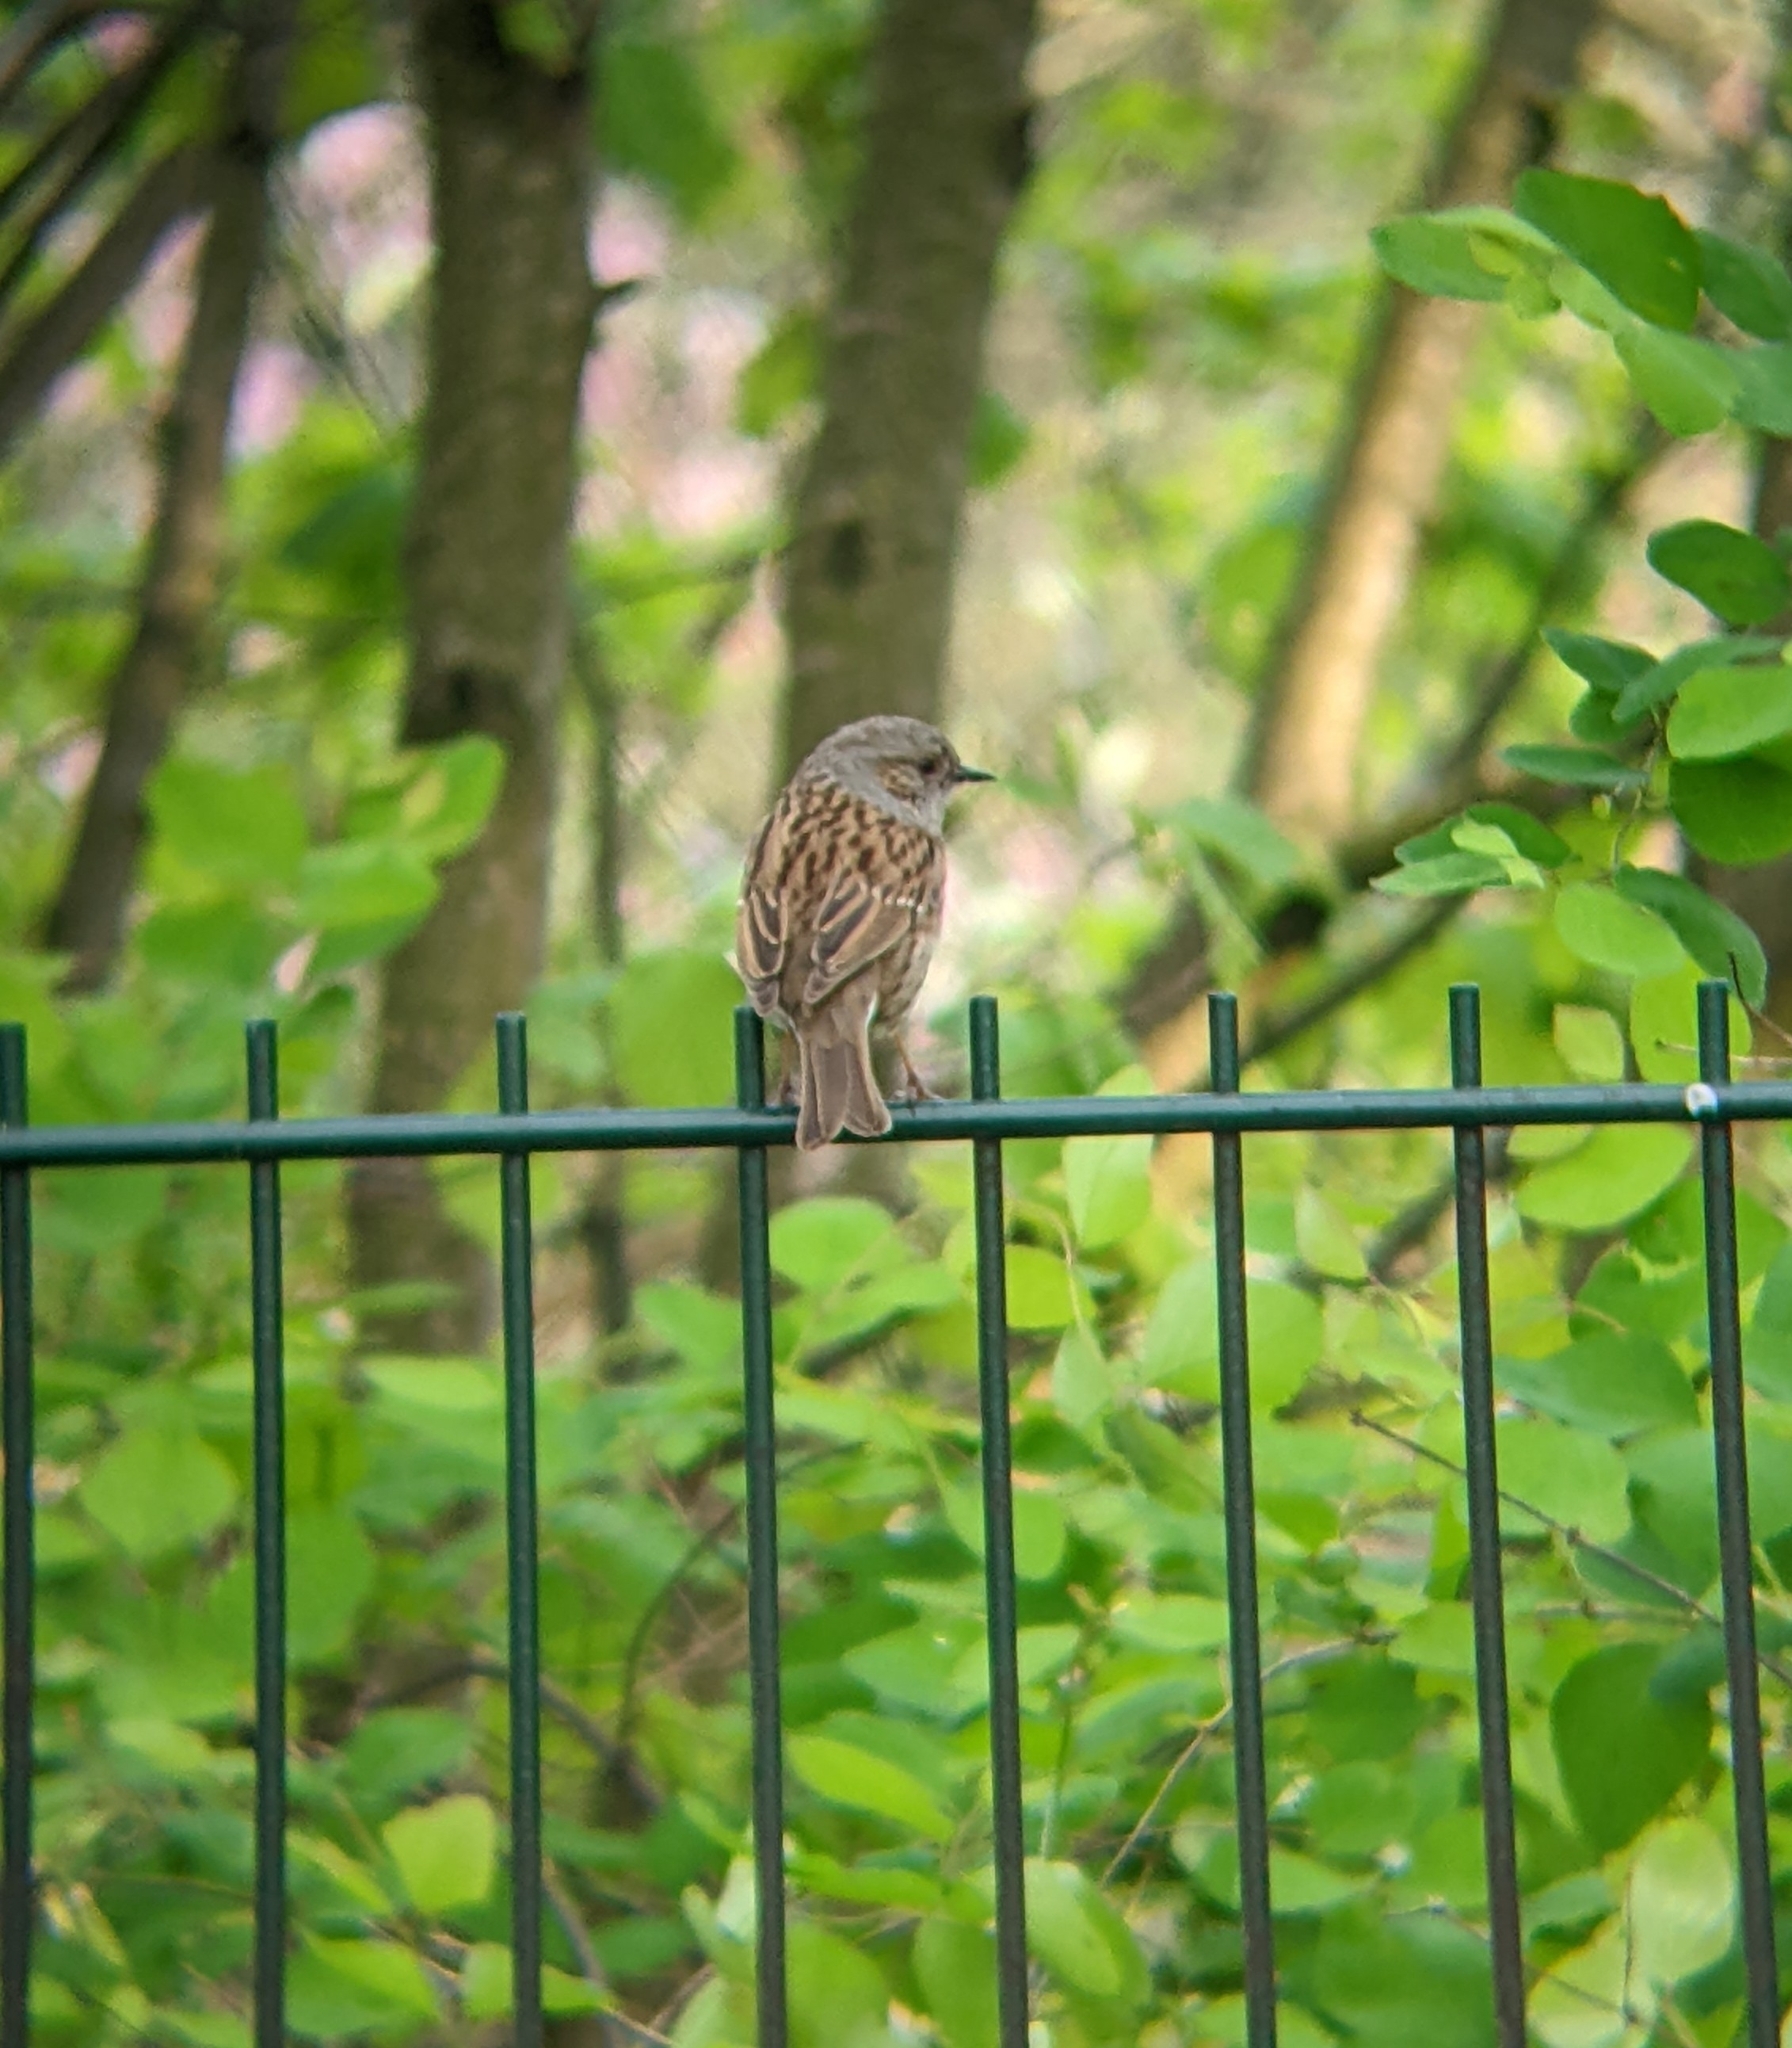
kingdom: Animalia
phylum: Chordata
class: Aves
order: Passeriformes
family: Prunellidae
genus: Prunella
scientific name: Prunella modularis
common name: Dunnock
